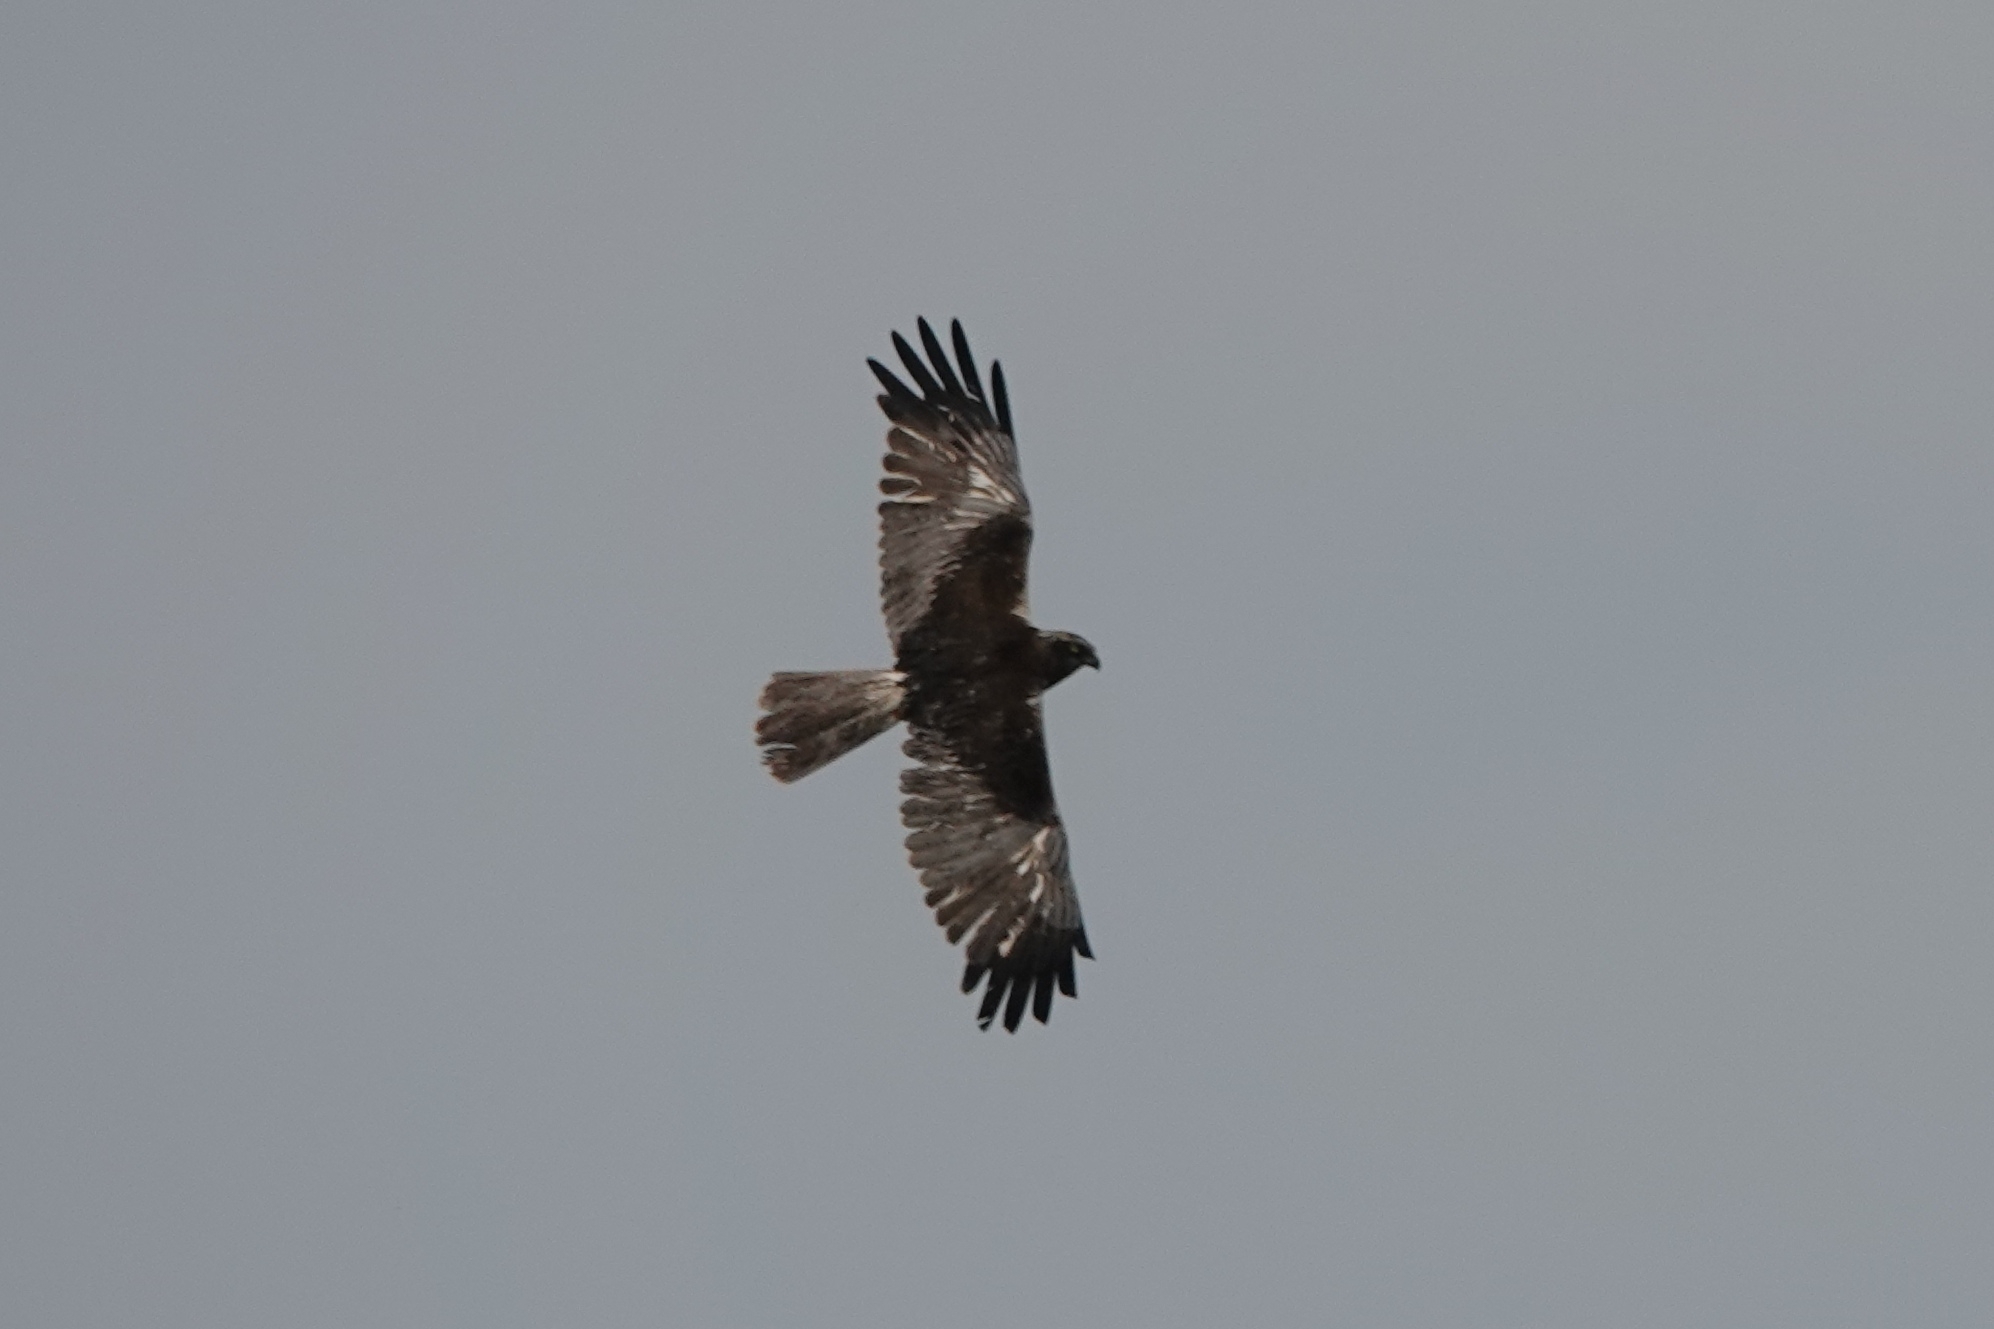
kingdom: Animalia
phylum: Chordata
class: Aves
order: Accipitriformes
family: Accipitridae
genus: Circus
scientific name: Circus aeruginosus
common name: Western marsh harrier
